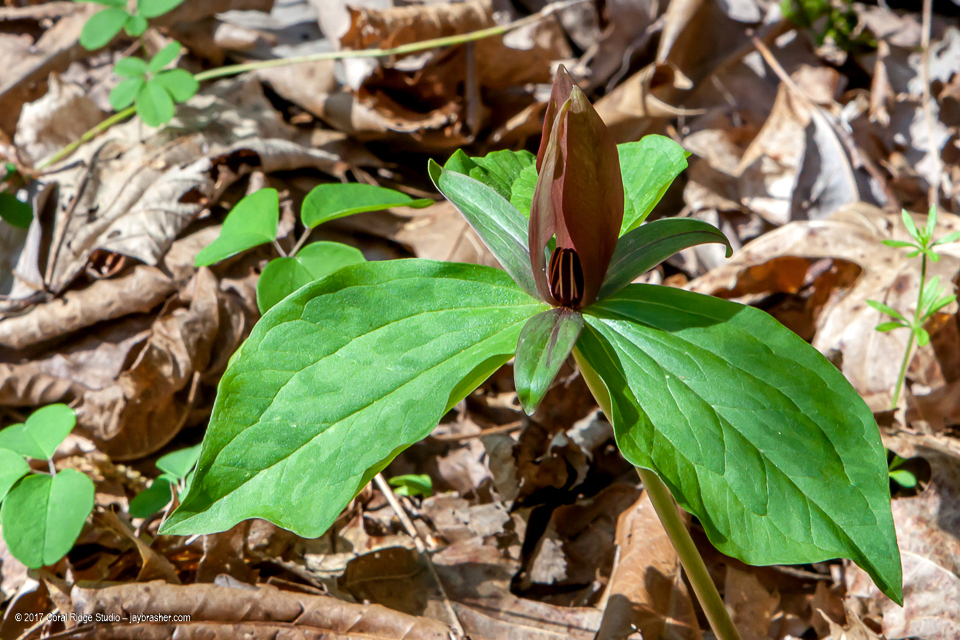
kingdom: Plantae
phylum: Tracheophyta
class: Liliopsida
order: Liliales
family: Melanthiaceae
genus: Trillium
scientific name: Trillium cuneatum
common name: Cuneate trillium
